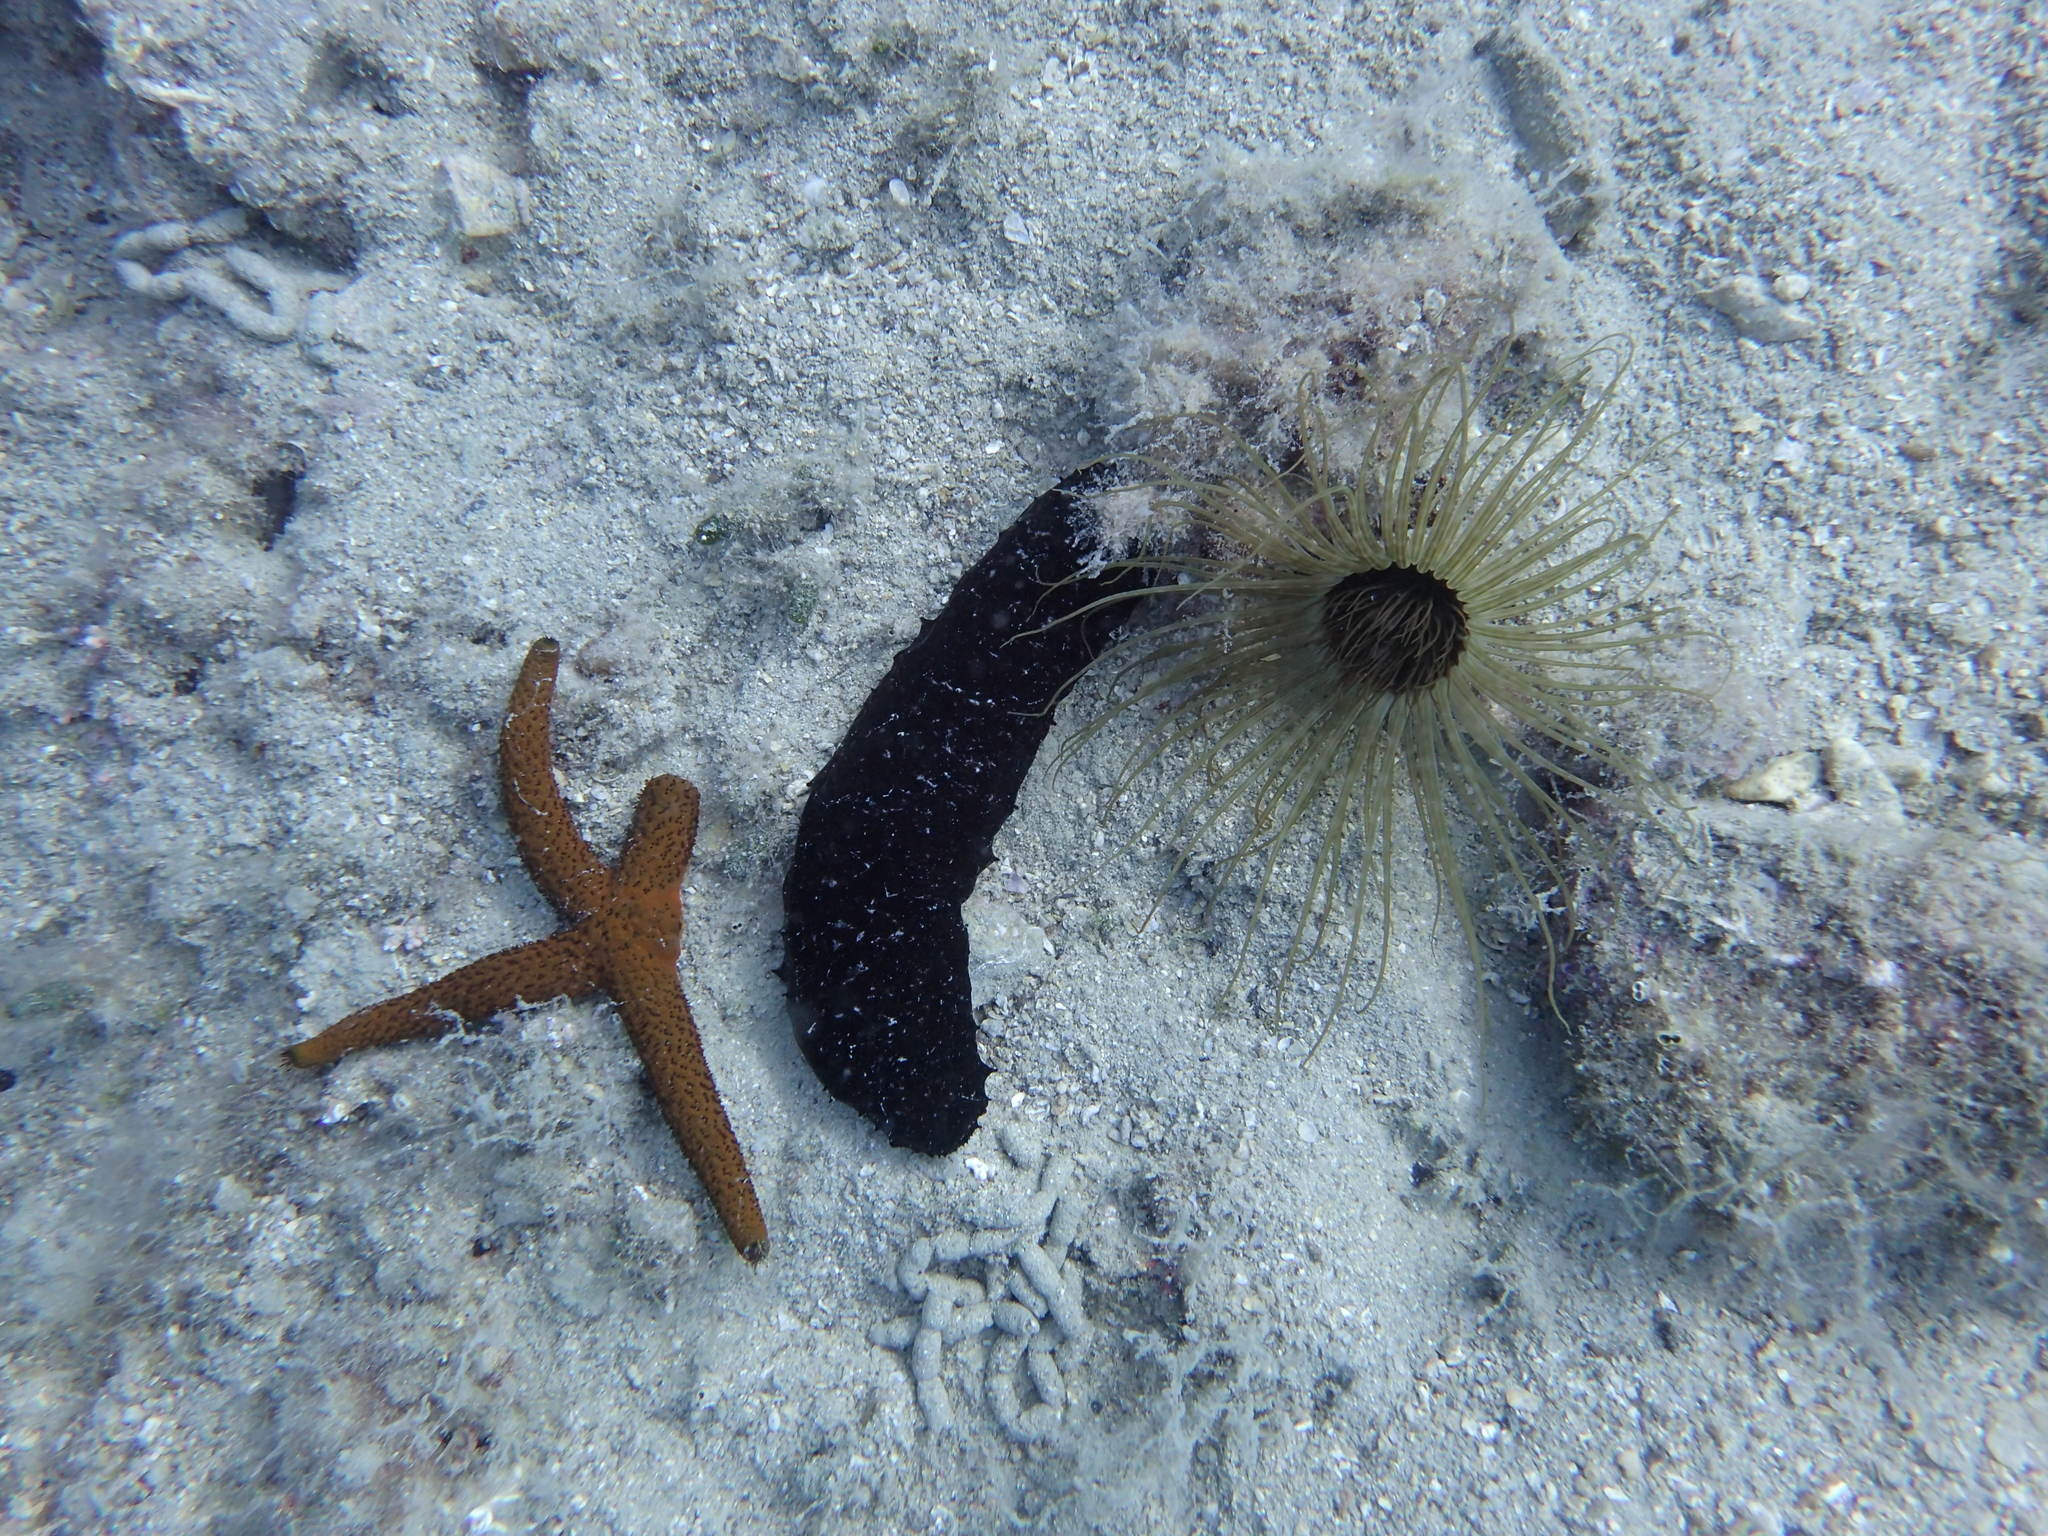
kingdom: Animalia
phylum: Echinodermata
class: Asteroidea
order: Spinulosida
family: Echinasteridae
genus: Echinaster
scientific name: Echinaster sepositus
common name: Red starfish
